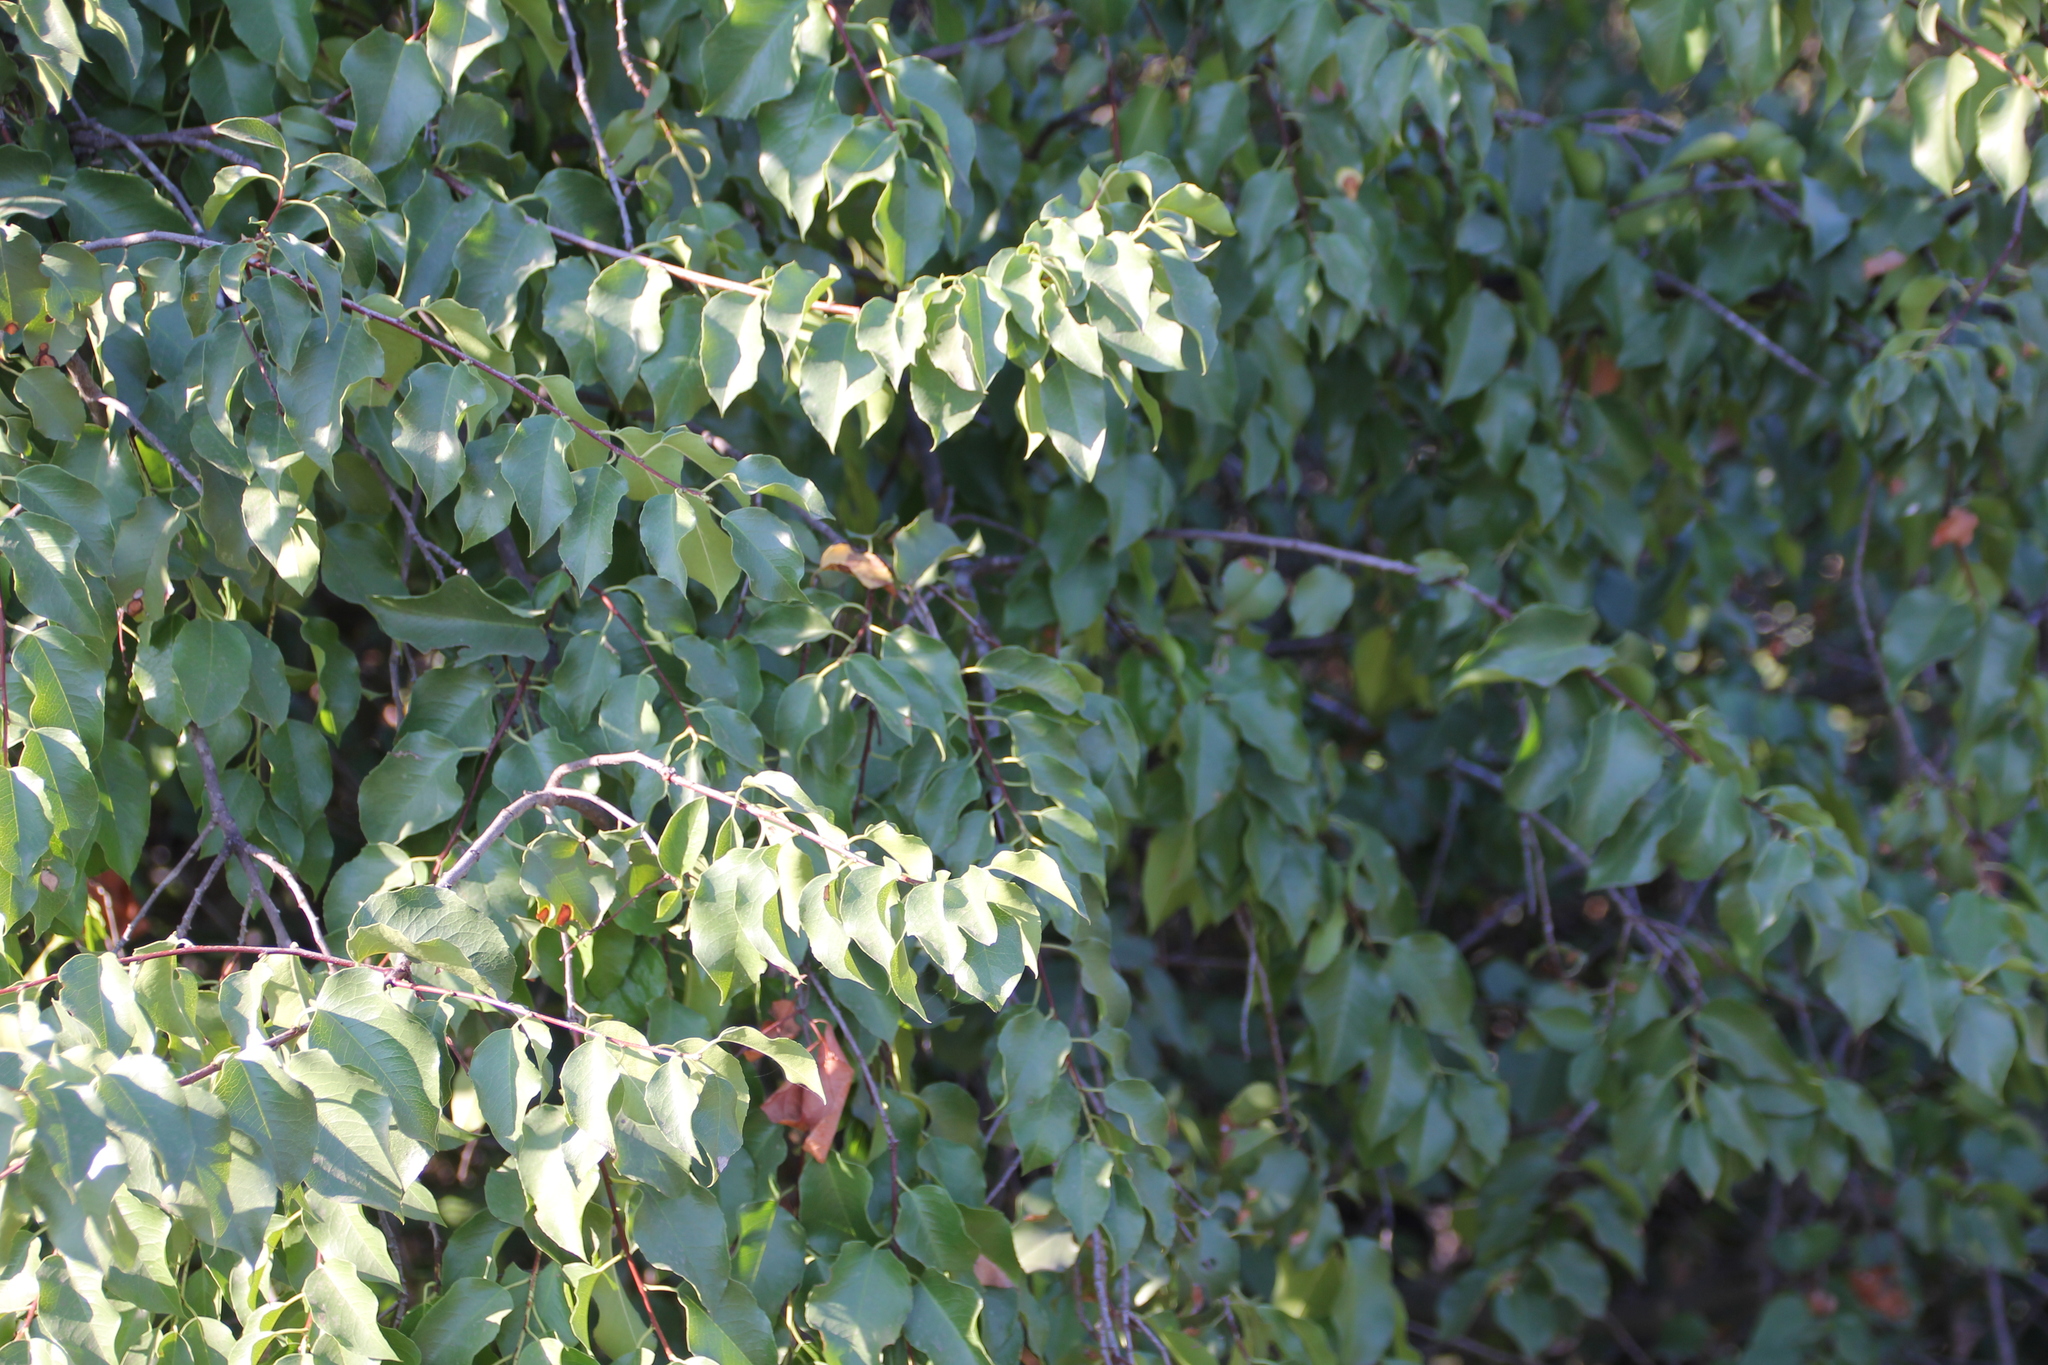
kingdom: Plantae
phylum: Tracheophyta
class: Magnoliopsida
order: Rosales
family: Rosaceae
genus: Prunus
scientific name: Prunus ilicifolia
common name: Hollyleaf cherry
